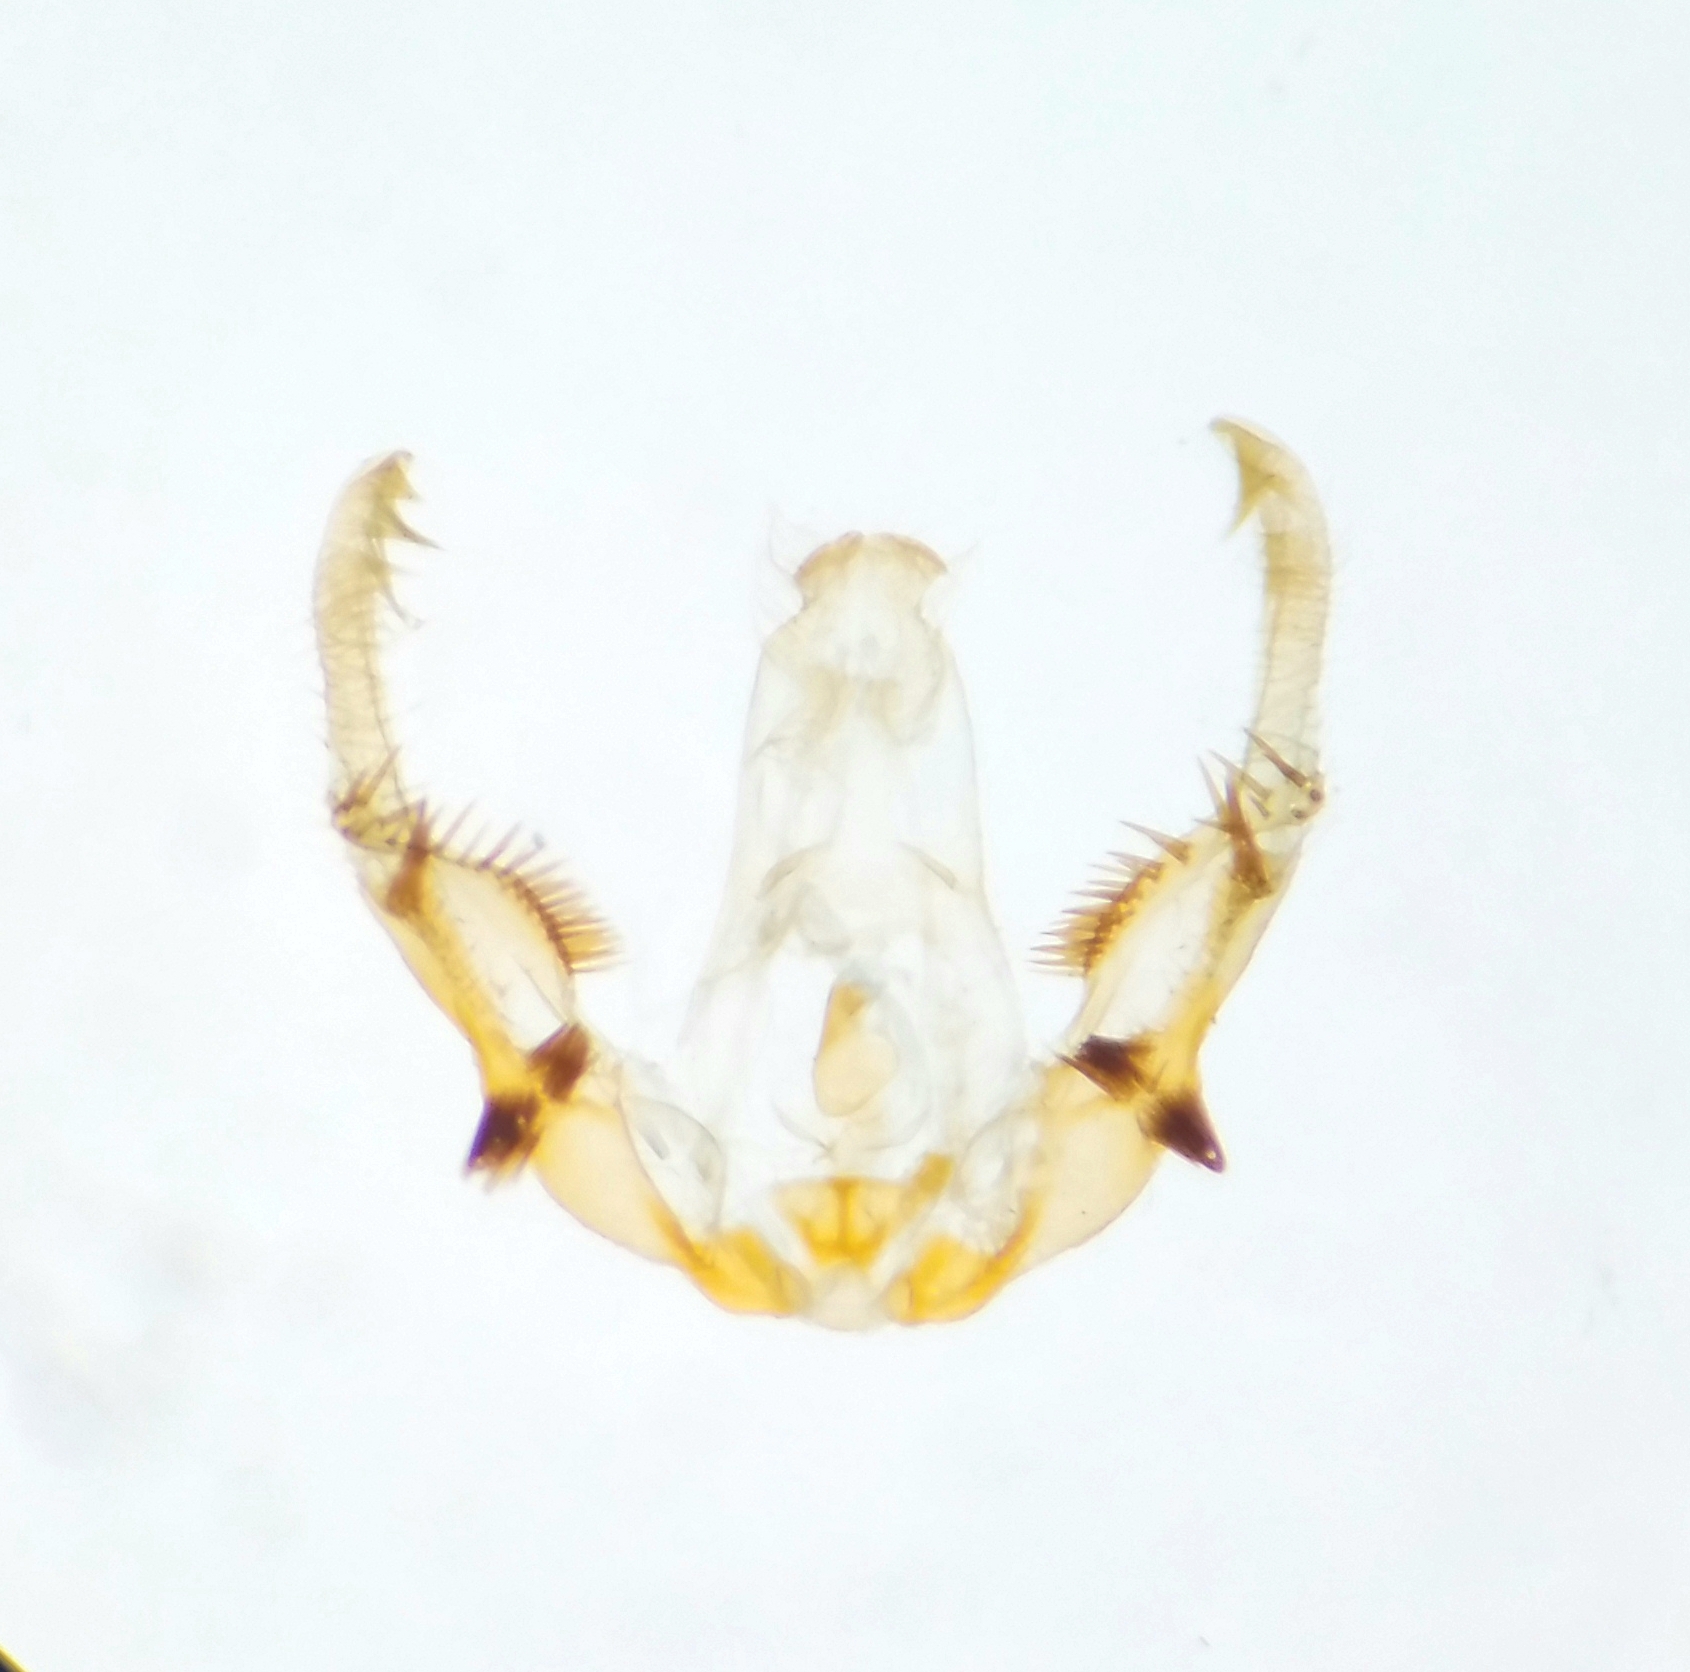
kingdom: Animalia
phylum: Arthropoda
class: Insecta
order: Lepidoptera
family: Tortricidae
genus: Olethreutes
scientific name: Olethreutes fasciatana
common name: Banded olethreutes moth
